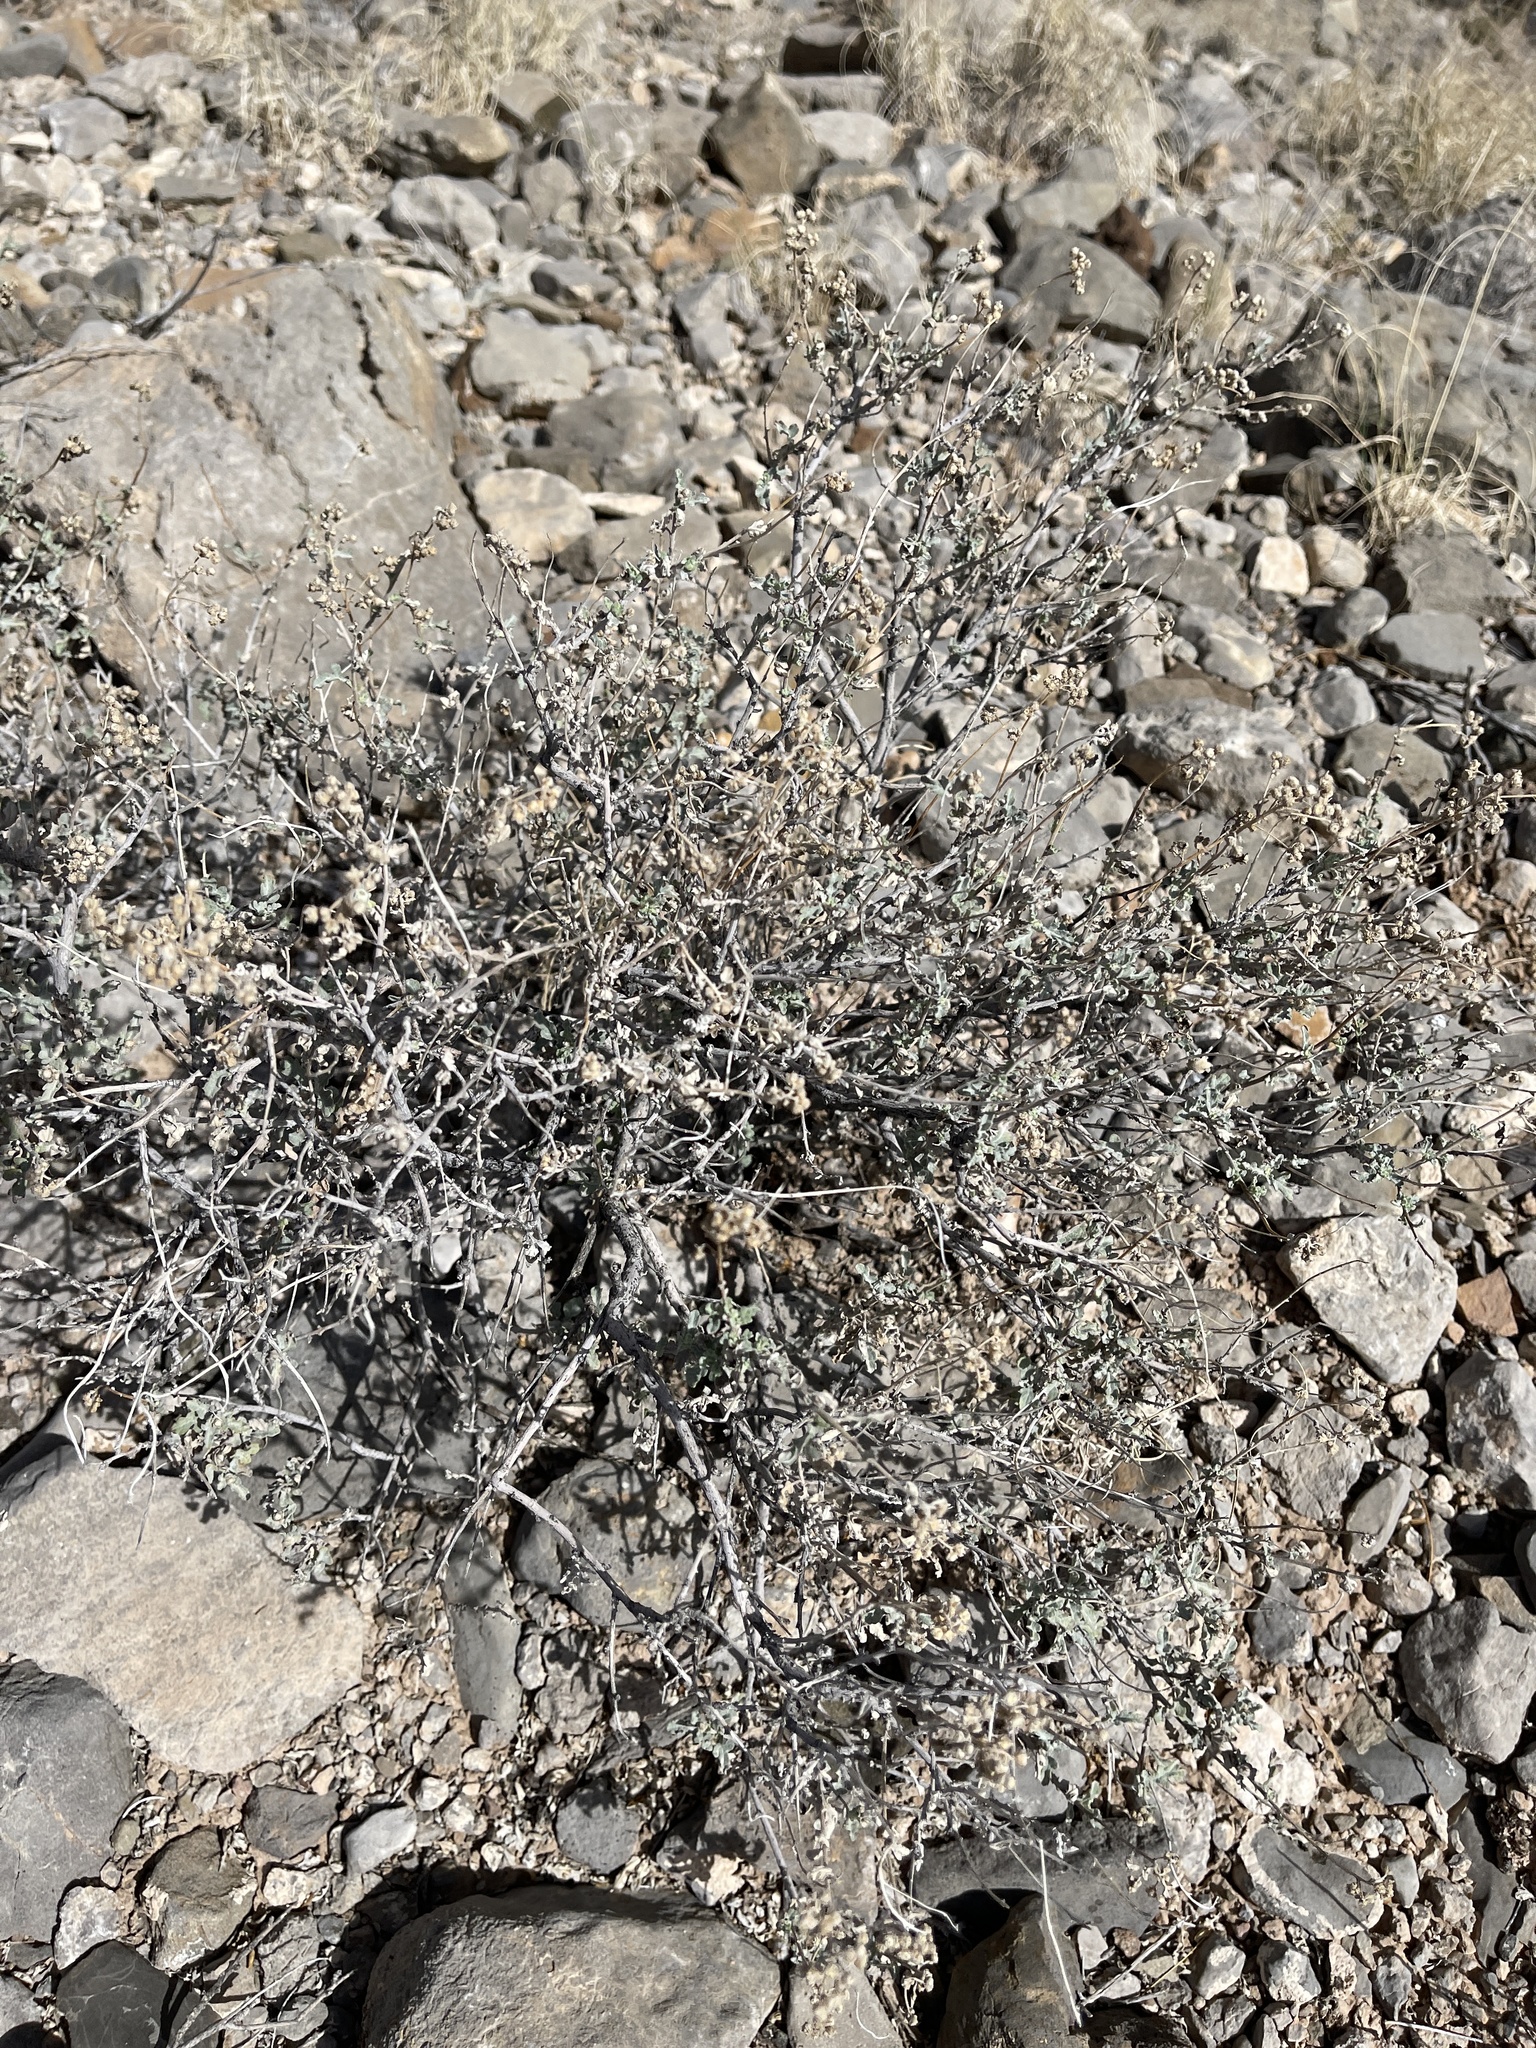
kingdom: Plantae
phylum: Tracheophyta
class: Magnoliopsida
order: Boraginales
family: Ehretiaceae
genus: Tiquilia
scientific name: Tiquilia canescens
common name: Hairy tiquilia
